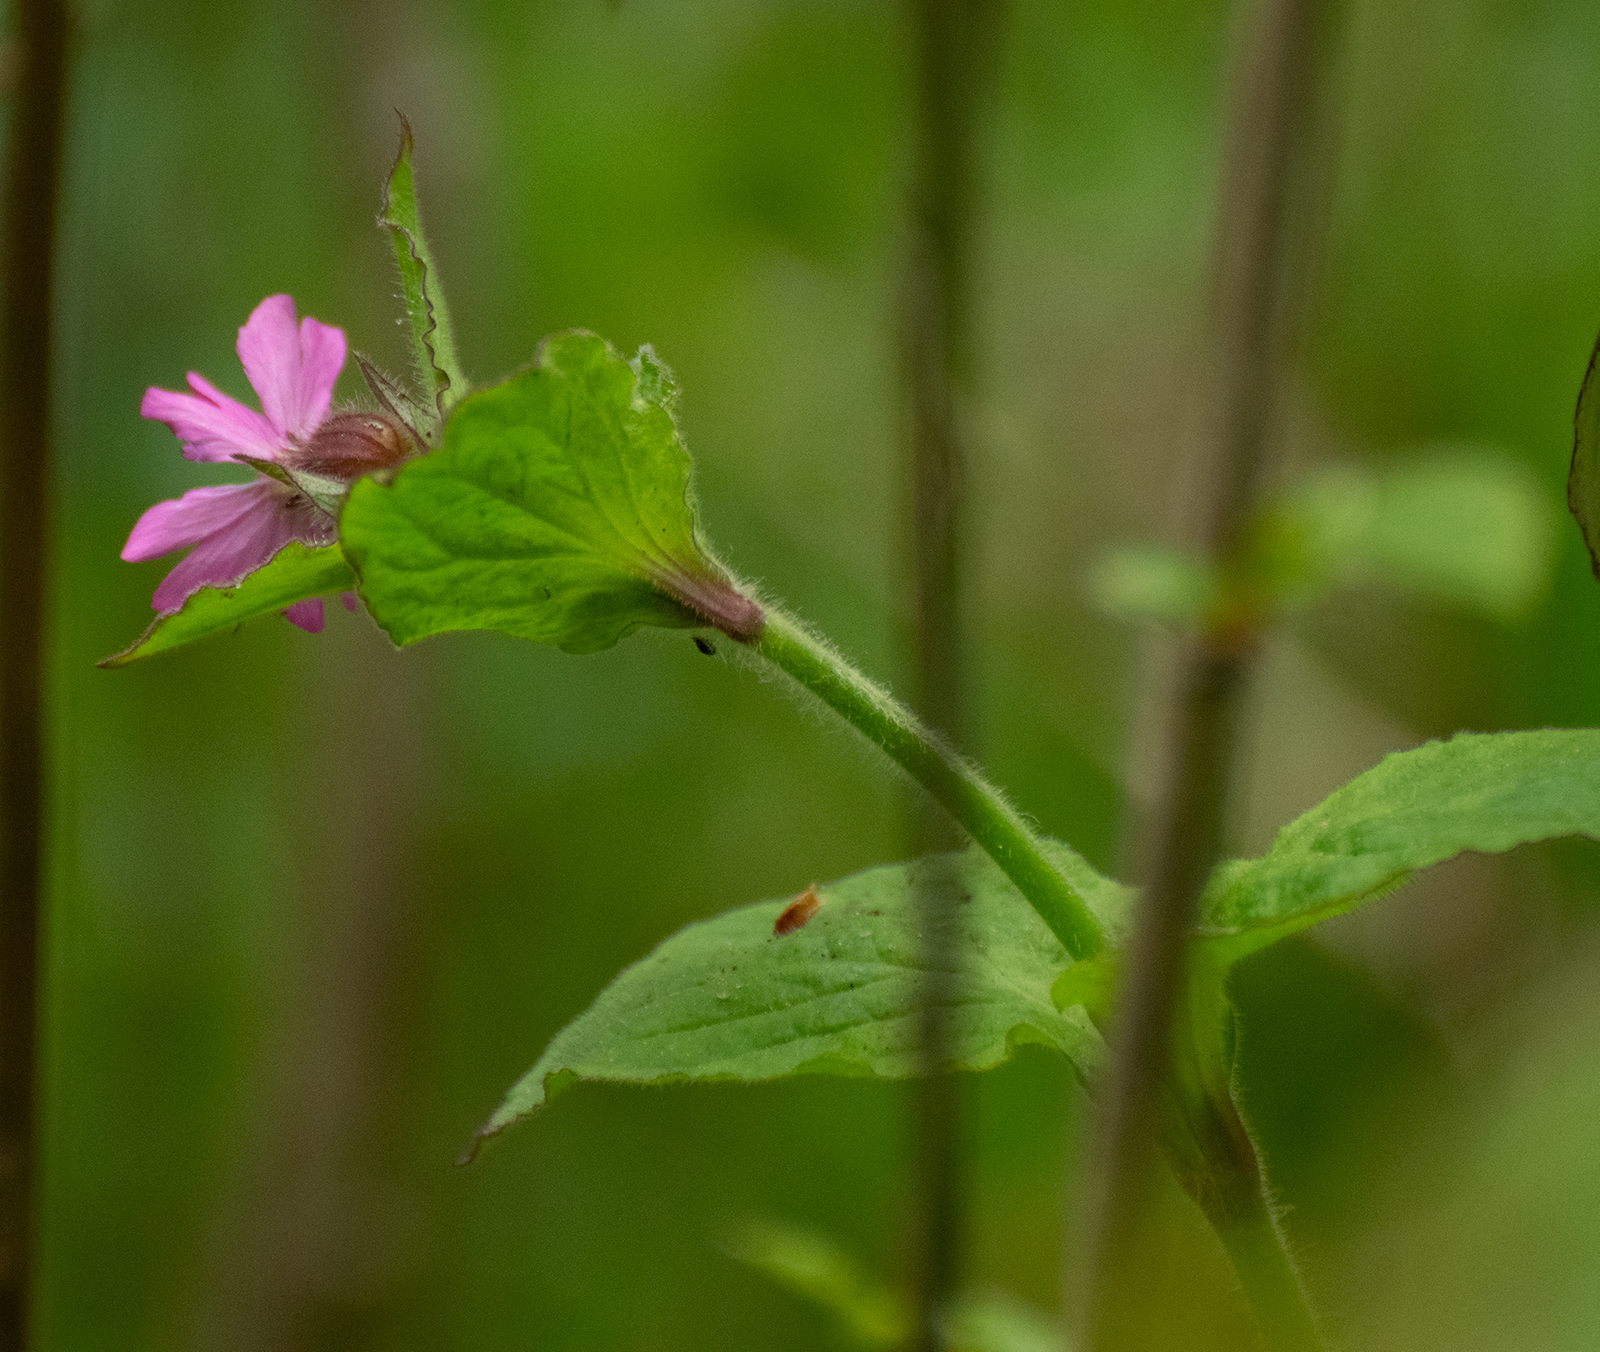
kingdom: Plantae
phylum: Tracheophyta
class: Magnoliopsida
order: Caryophyllales
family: Caryophyllaceae
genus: Silene
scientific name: Silene dioica
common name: Red campion
